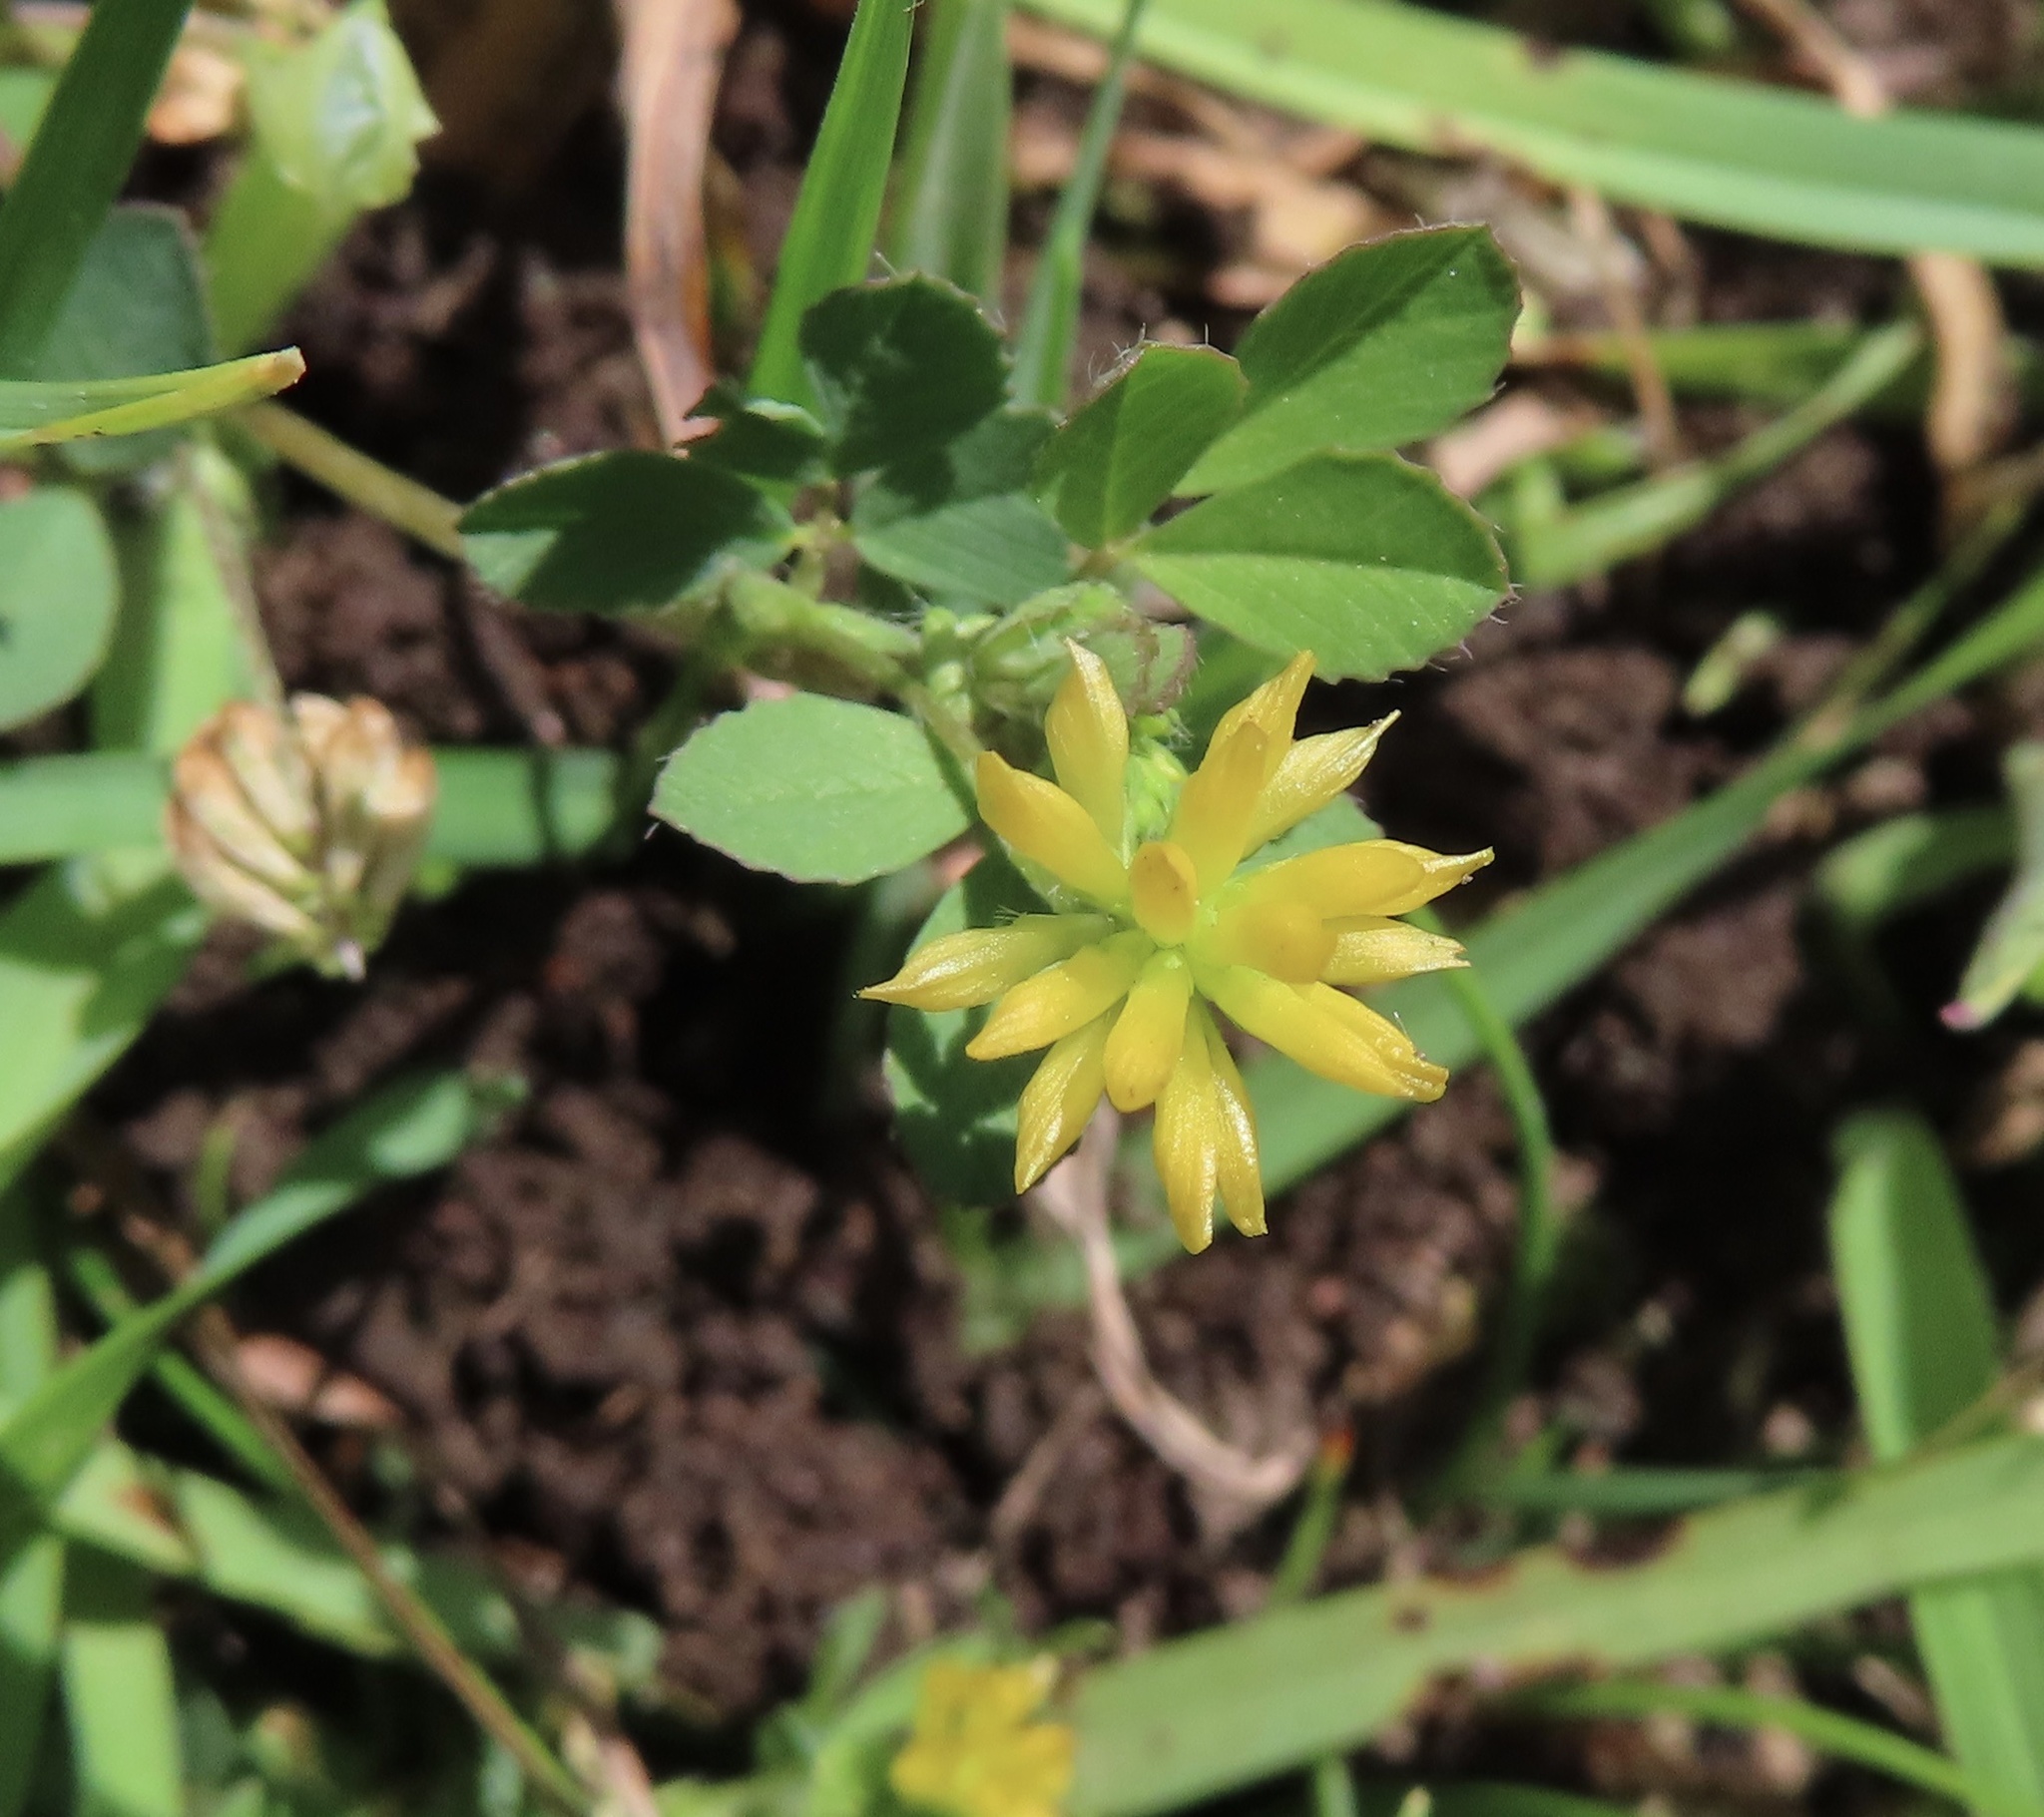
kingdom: Plantae
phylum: Tracheophyta
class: Magnoliopsida
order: Fabales
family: Fabaceae
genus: Trifolium
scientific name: Trifolium dubium
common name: Suckling clover
